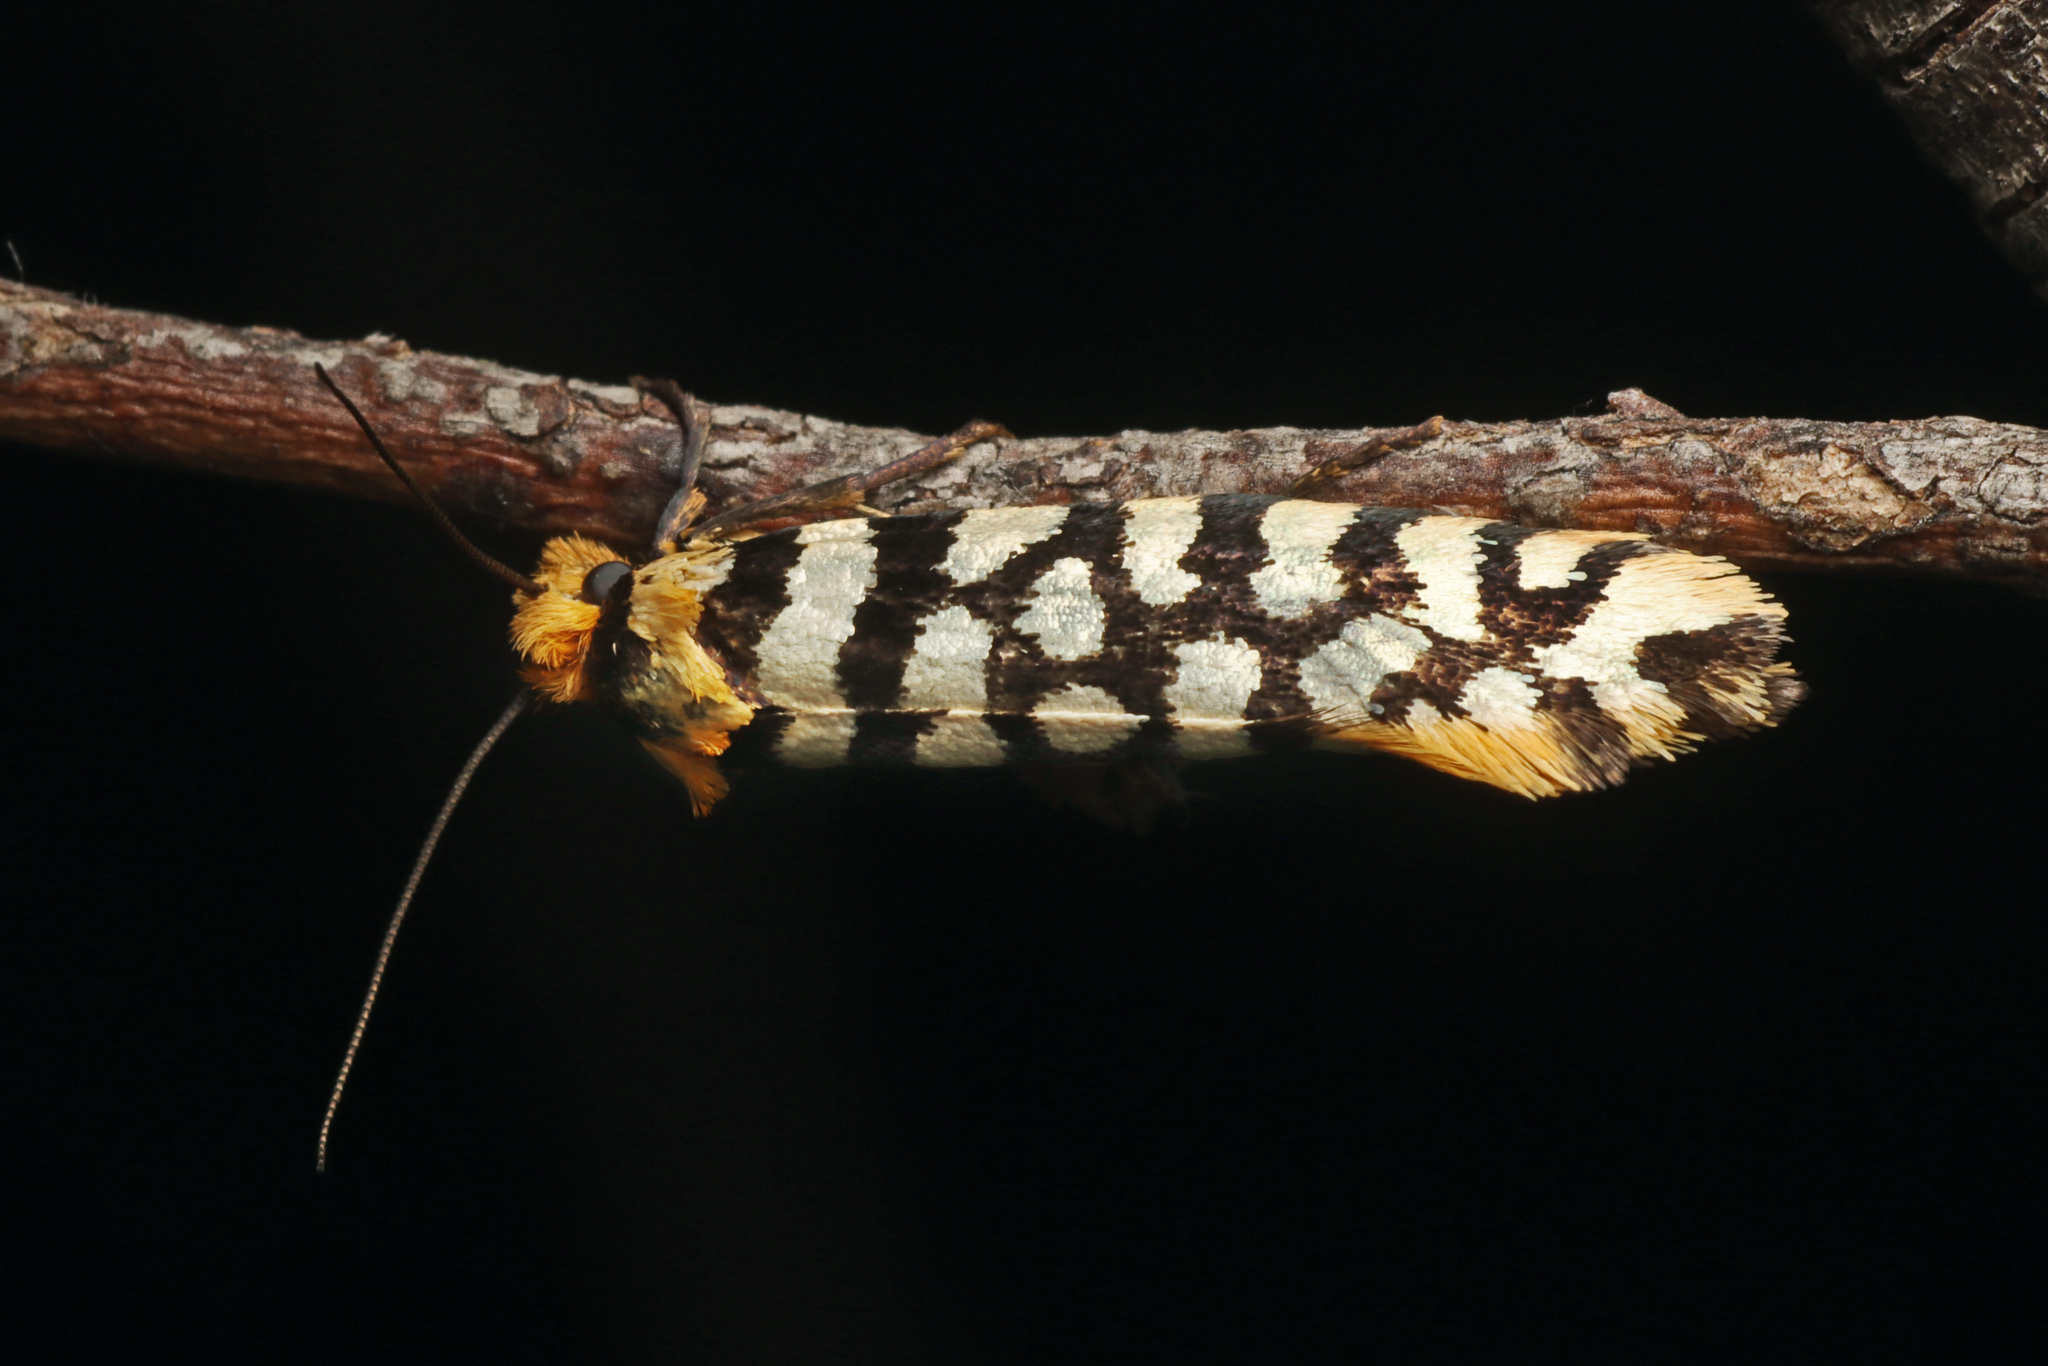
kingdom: Animalia
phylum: Arthropoda
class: Insecta
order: Lepidoptera
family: Tineidae
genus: Moerarchis
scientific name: Moerarchis australasiella
